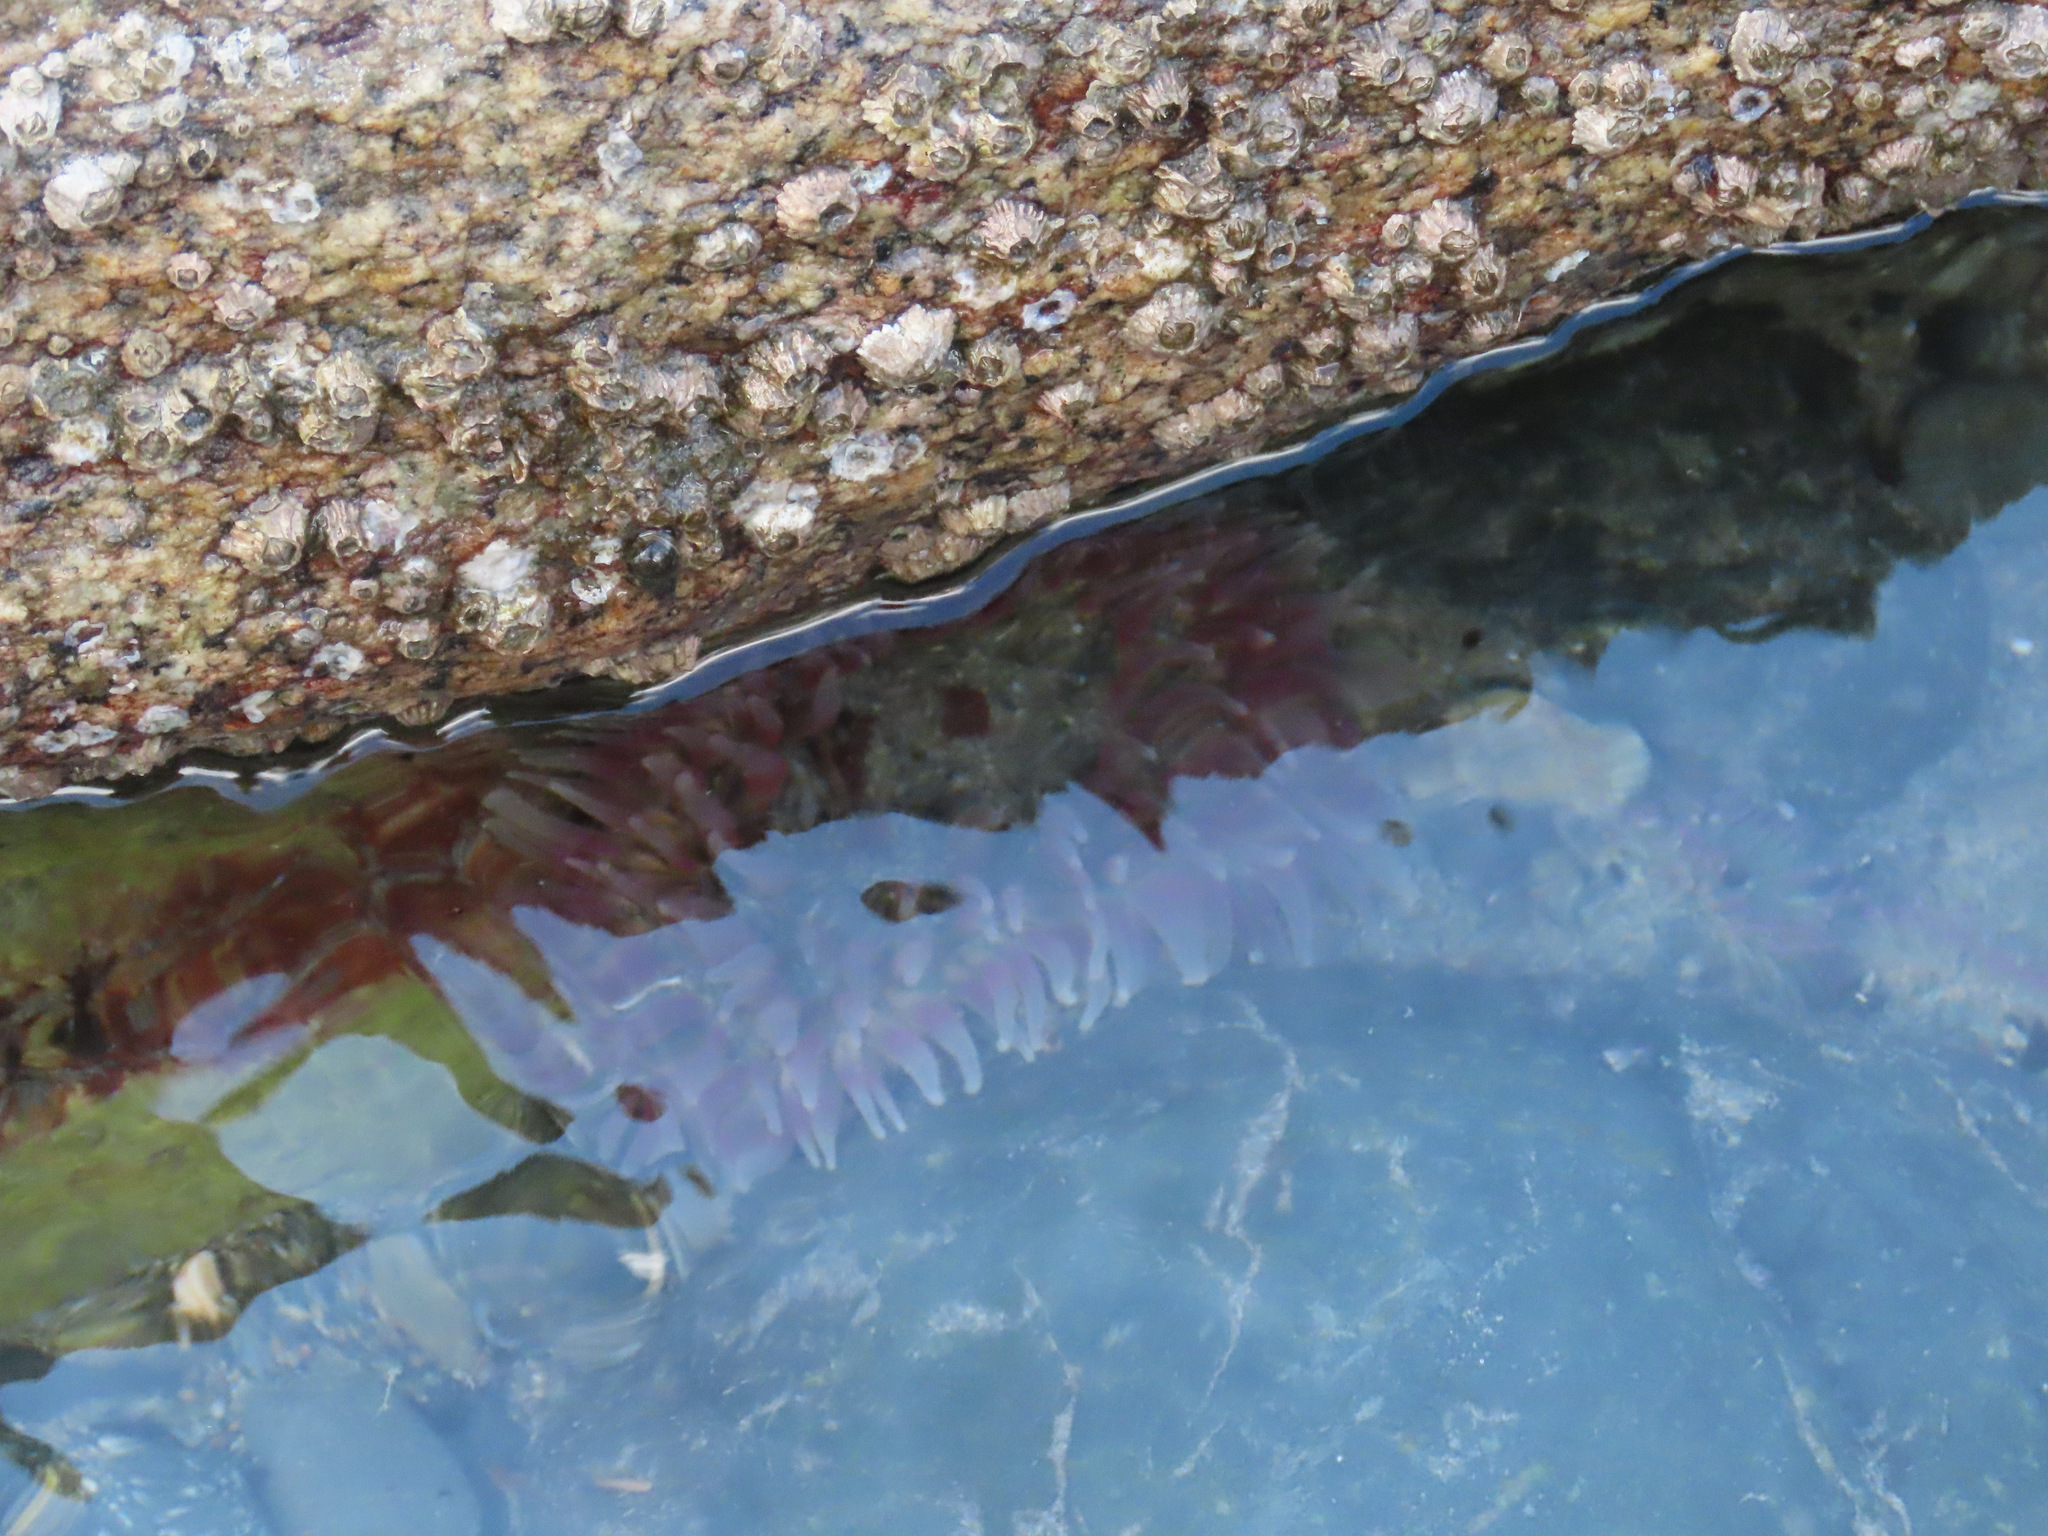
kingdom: Animalia
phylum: Cnidaria
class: Anthozoa
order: Actiniaria
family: Actiniidae
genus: Urticina
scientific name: Urticina clandestina
